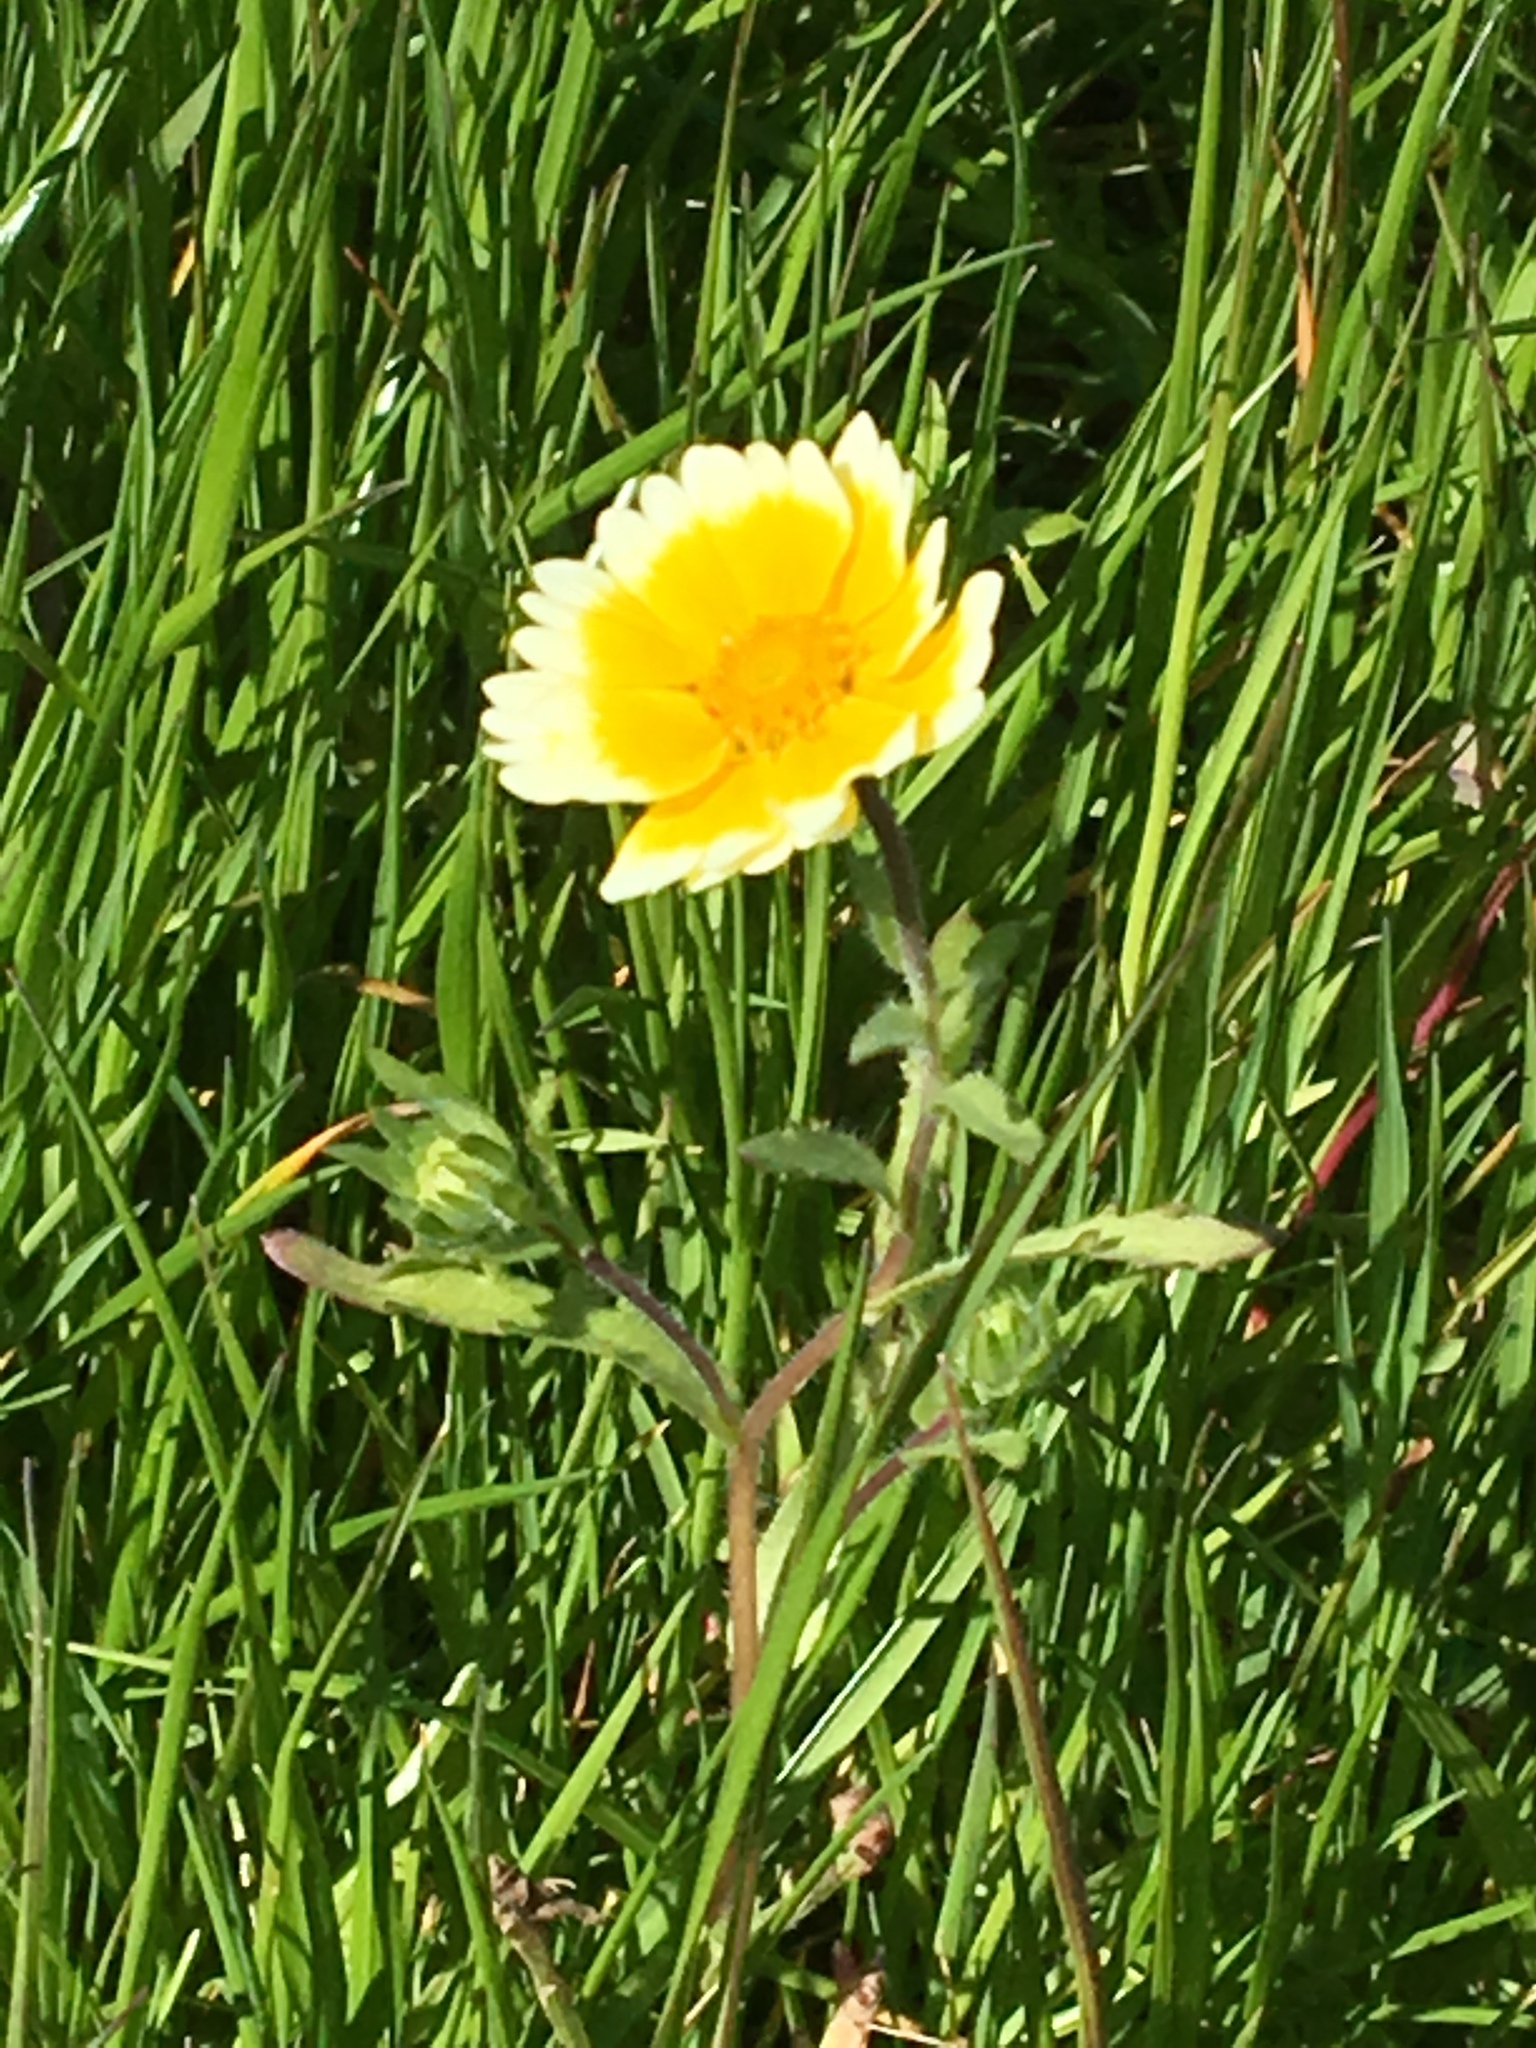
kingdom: Plantae
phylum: Tracheophyta
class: Magnoliopsida
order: Asterales
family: Asteraceae
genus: Layia
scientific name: Layia platyglossa
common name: Tidy-tips
